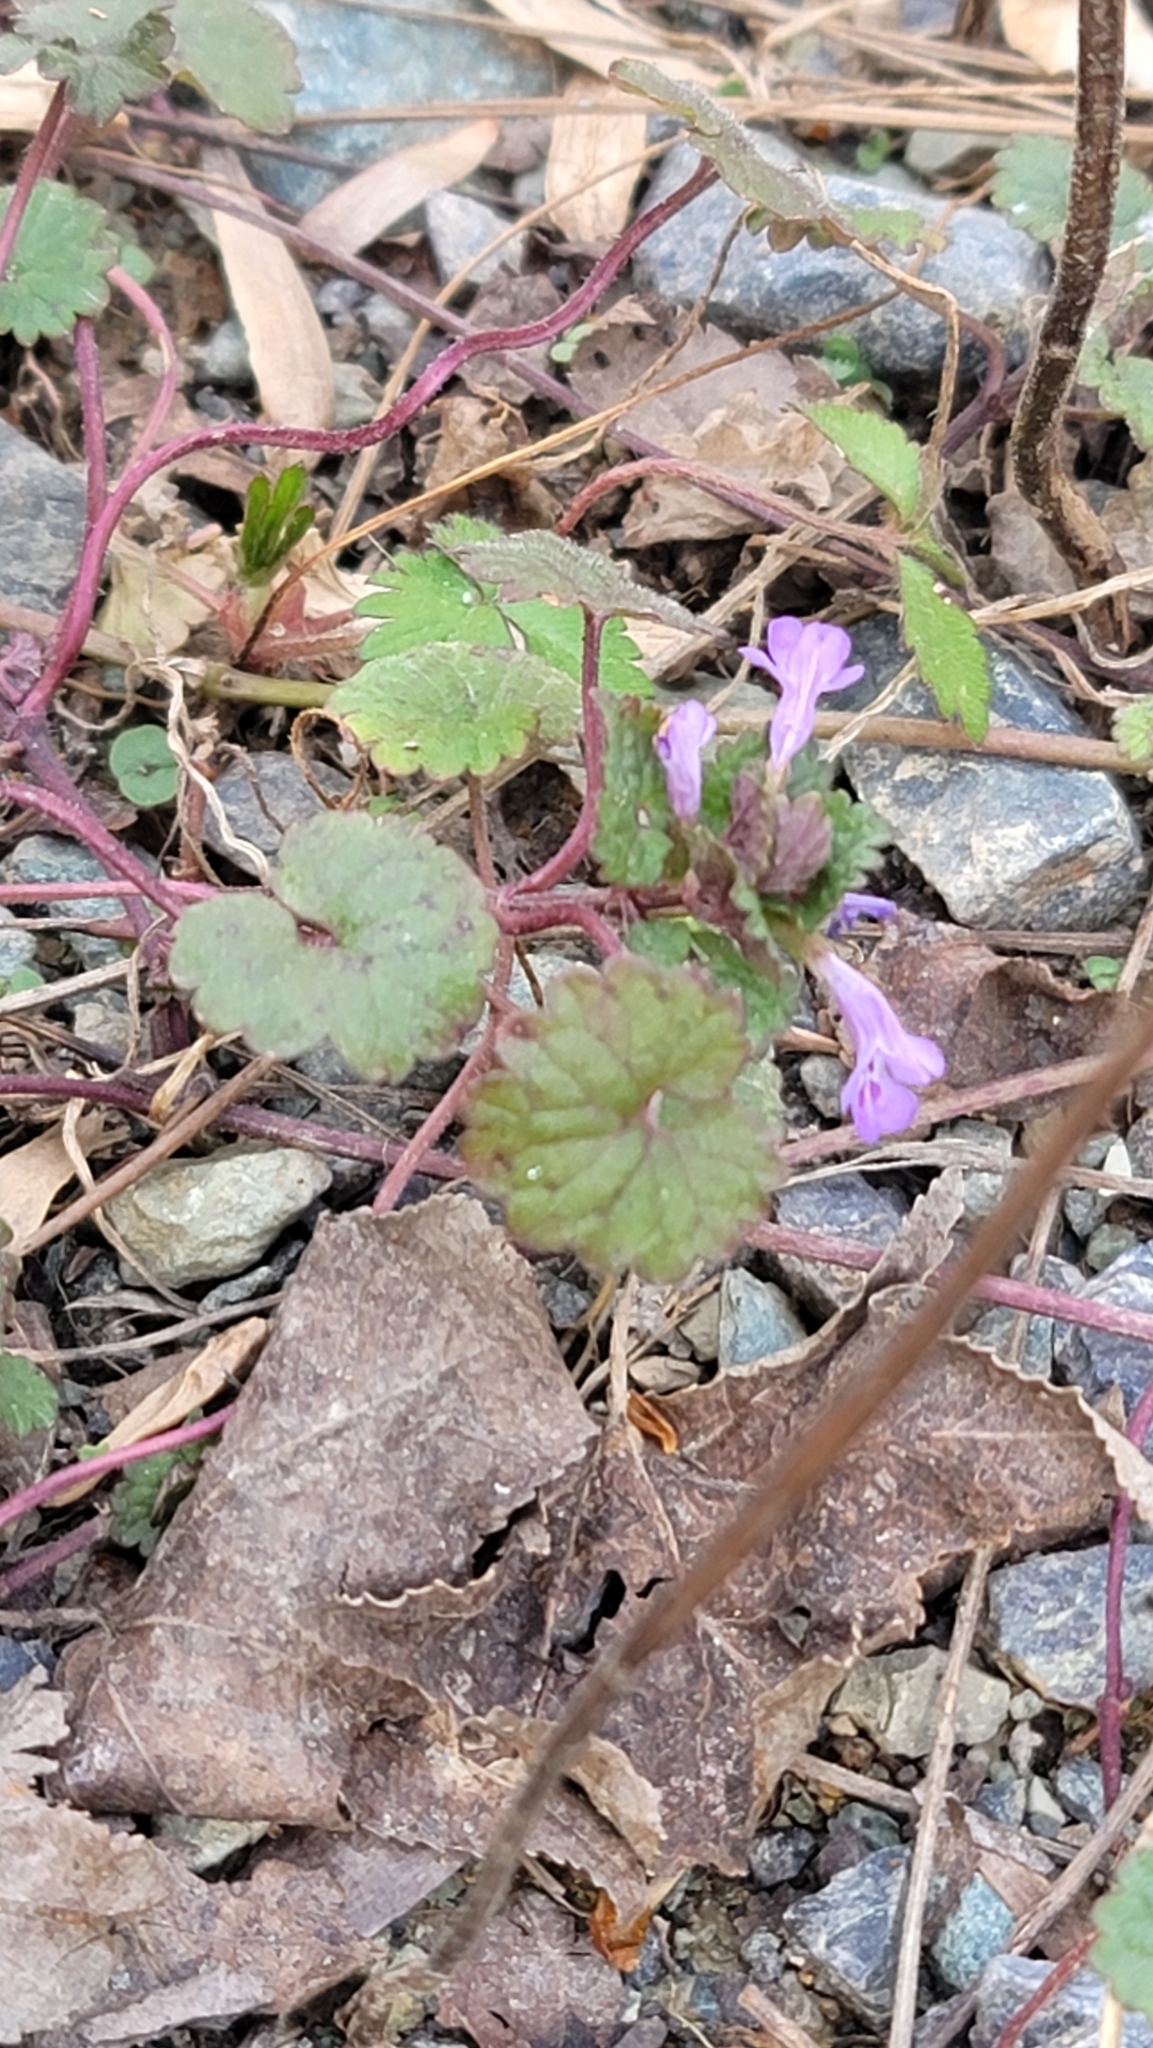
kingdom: Plantae
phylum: Tracheophyta
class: Magnoliopsida
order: Lamiales
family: Lamiaceae
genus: Glechoma
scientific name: Glechoma hederacea
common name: Ground ivy
